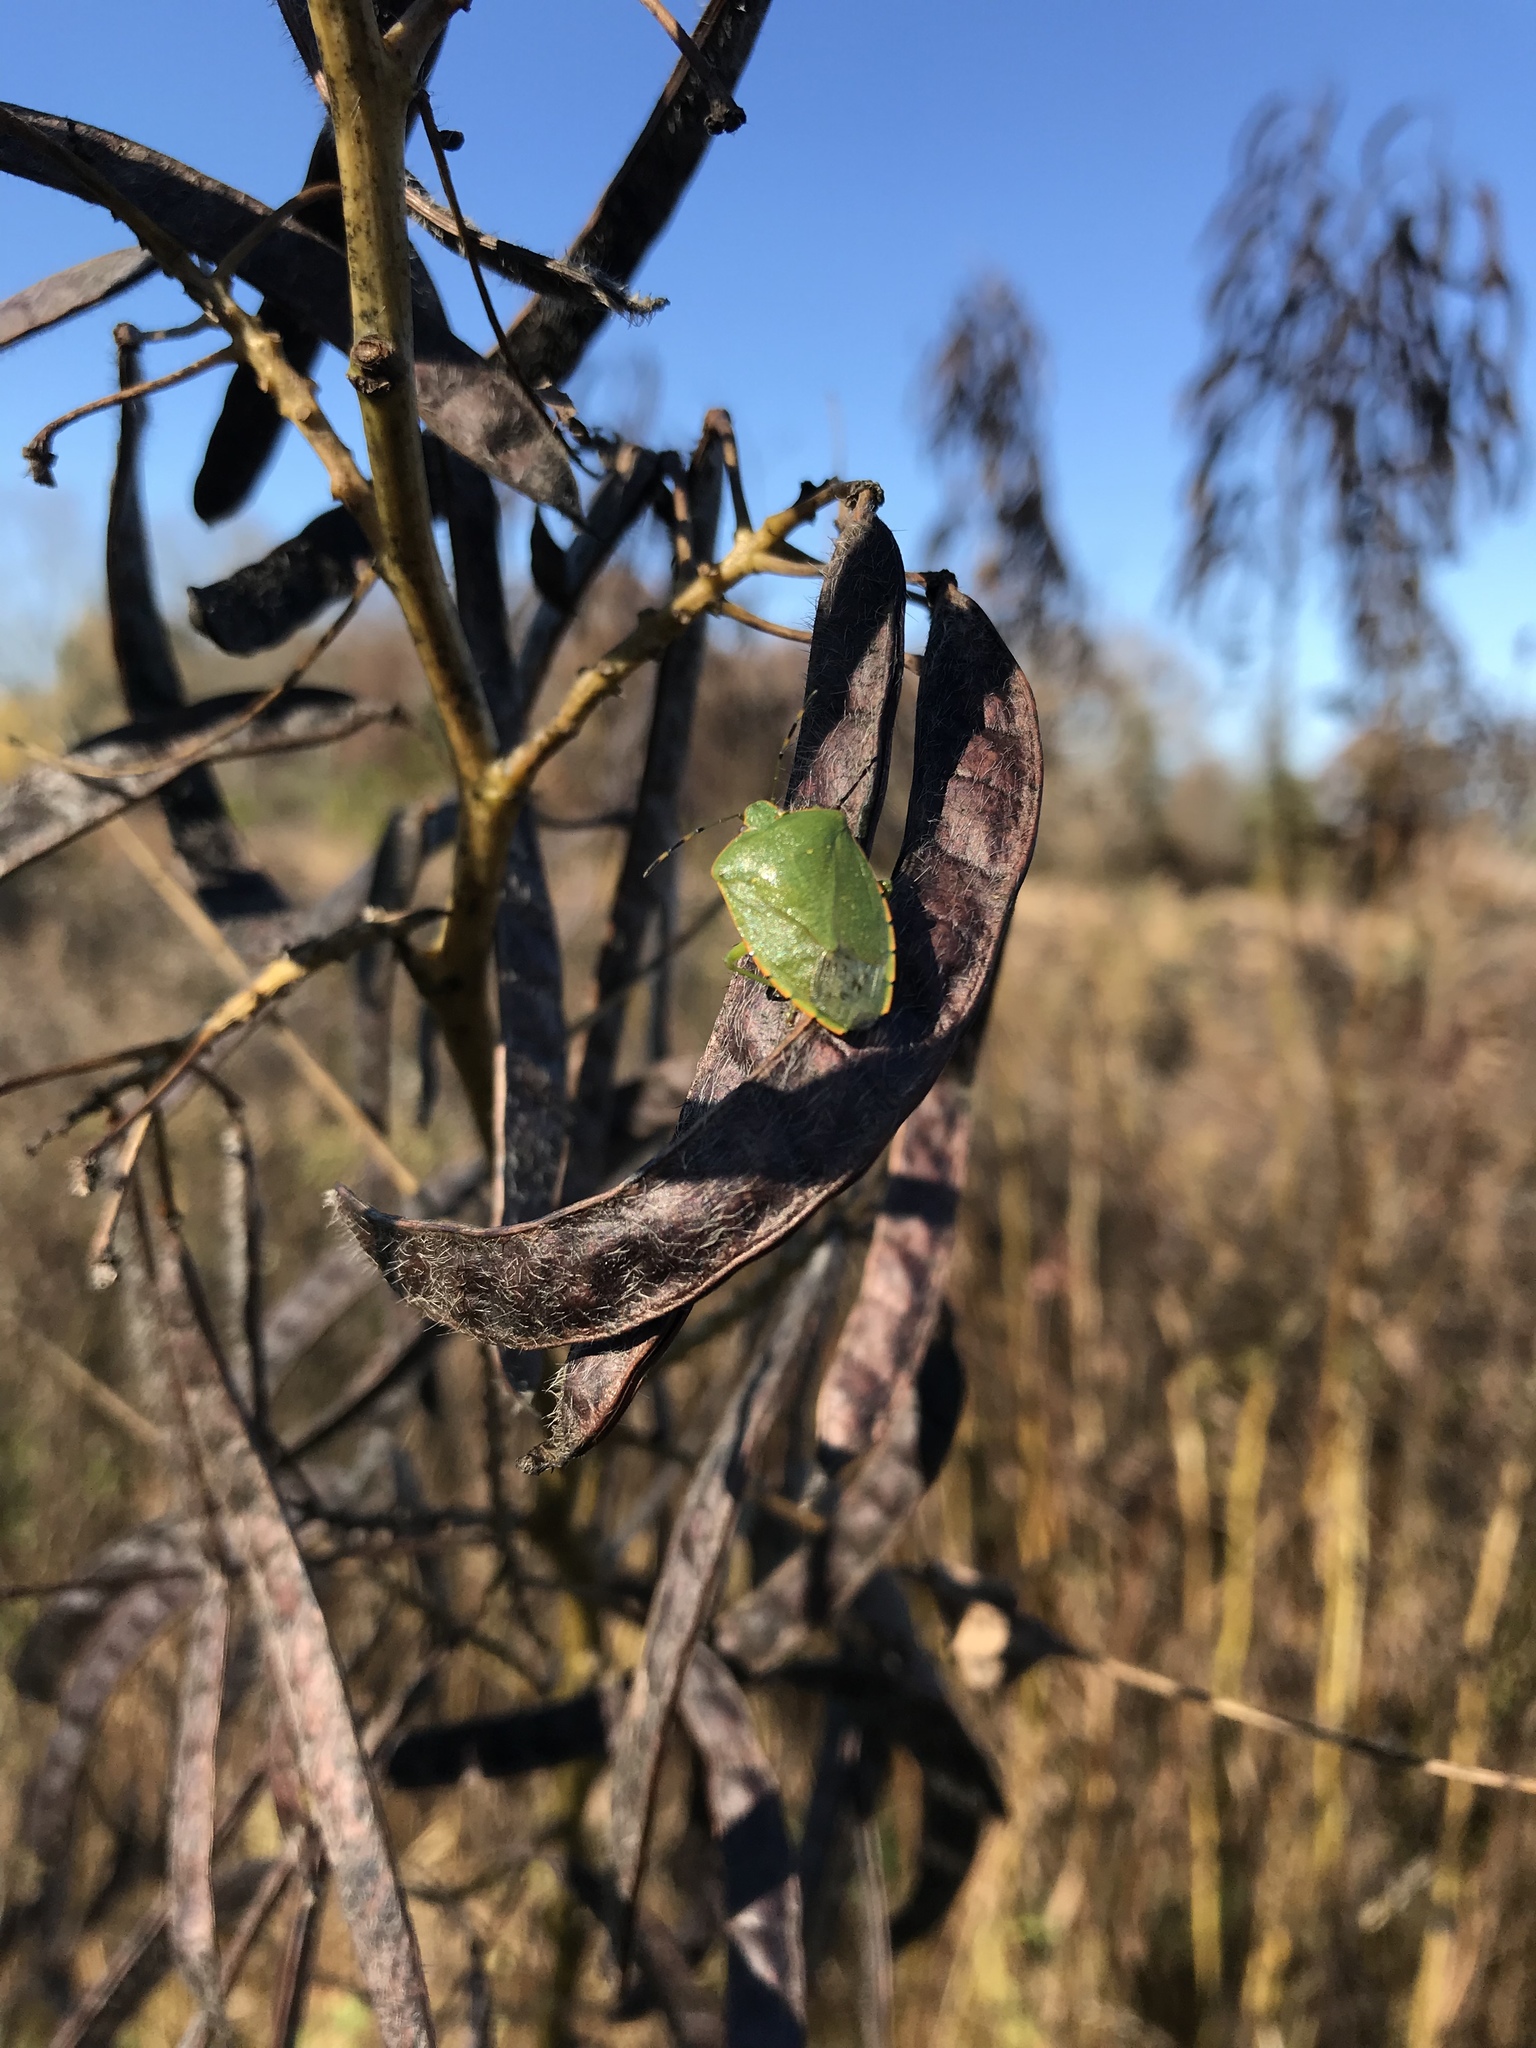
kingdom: Animalia
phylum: Arthropoda
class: Insecta
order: Hemiptera
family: Pentatomidae
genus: Chinavia
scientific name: Chinavia hilaris
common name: Green stink bug
